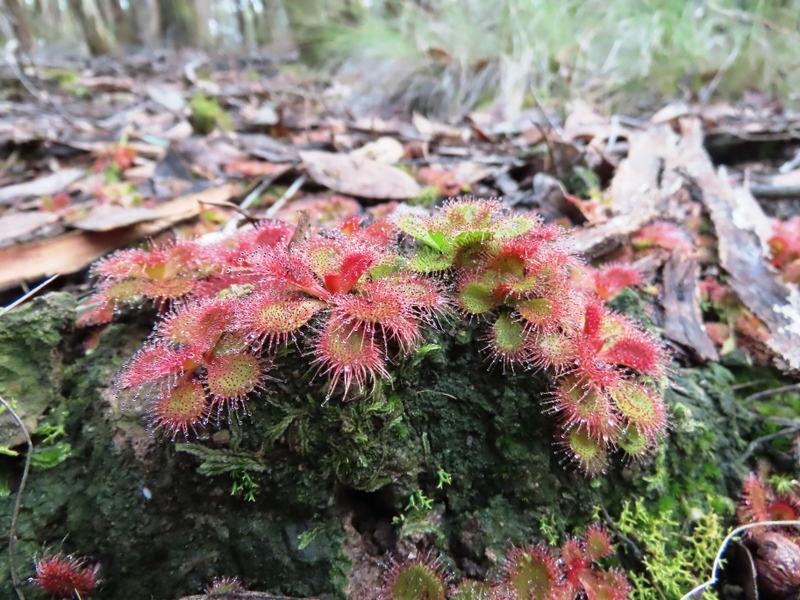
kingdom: Plantae
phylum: Tracheophyta
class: Magnoliopsida
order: Caryophyllales
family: Droseraceae
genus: Drosera
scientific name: Drosera aberrans
